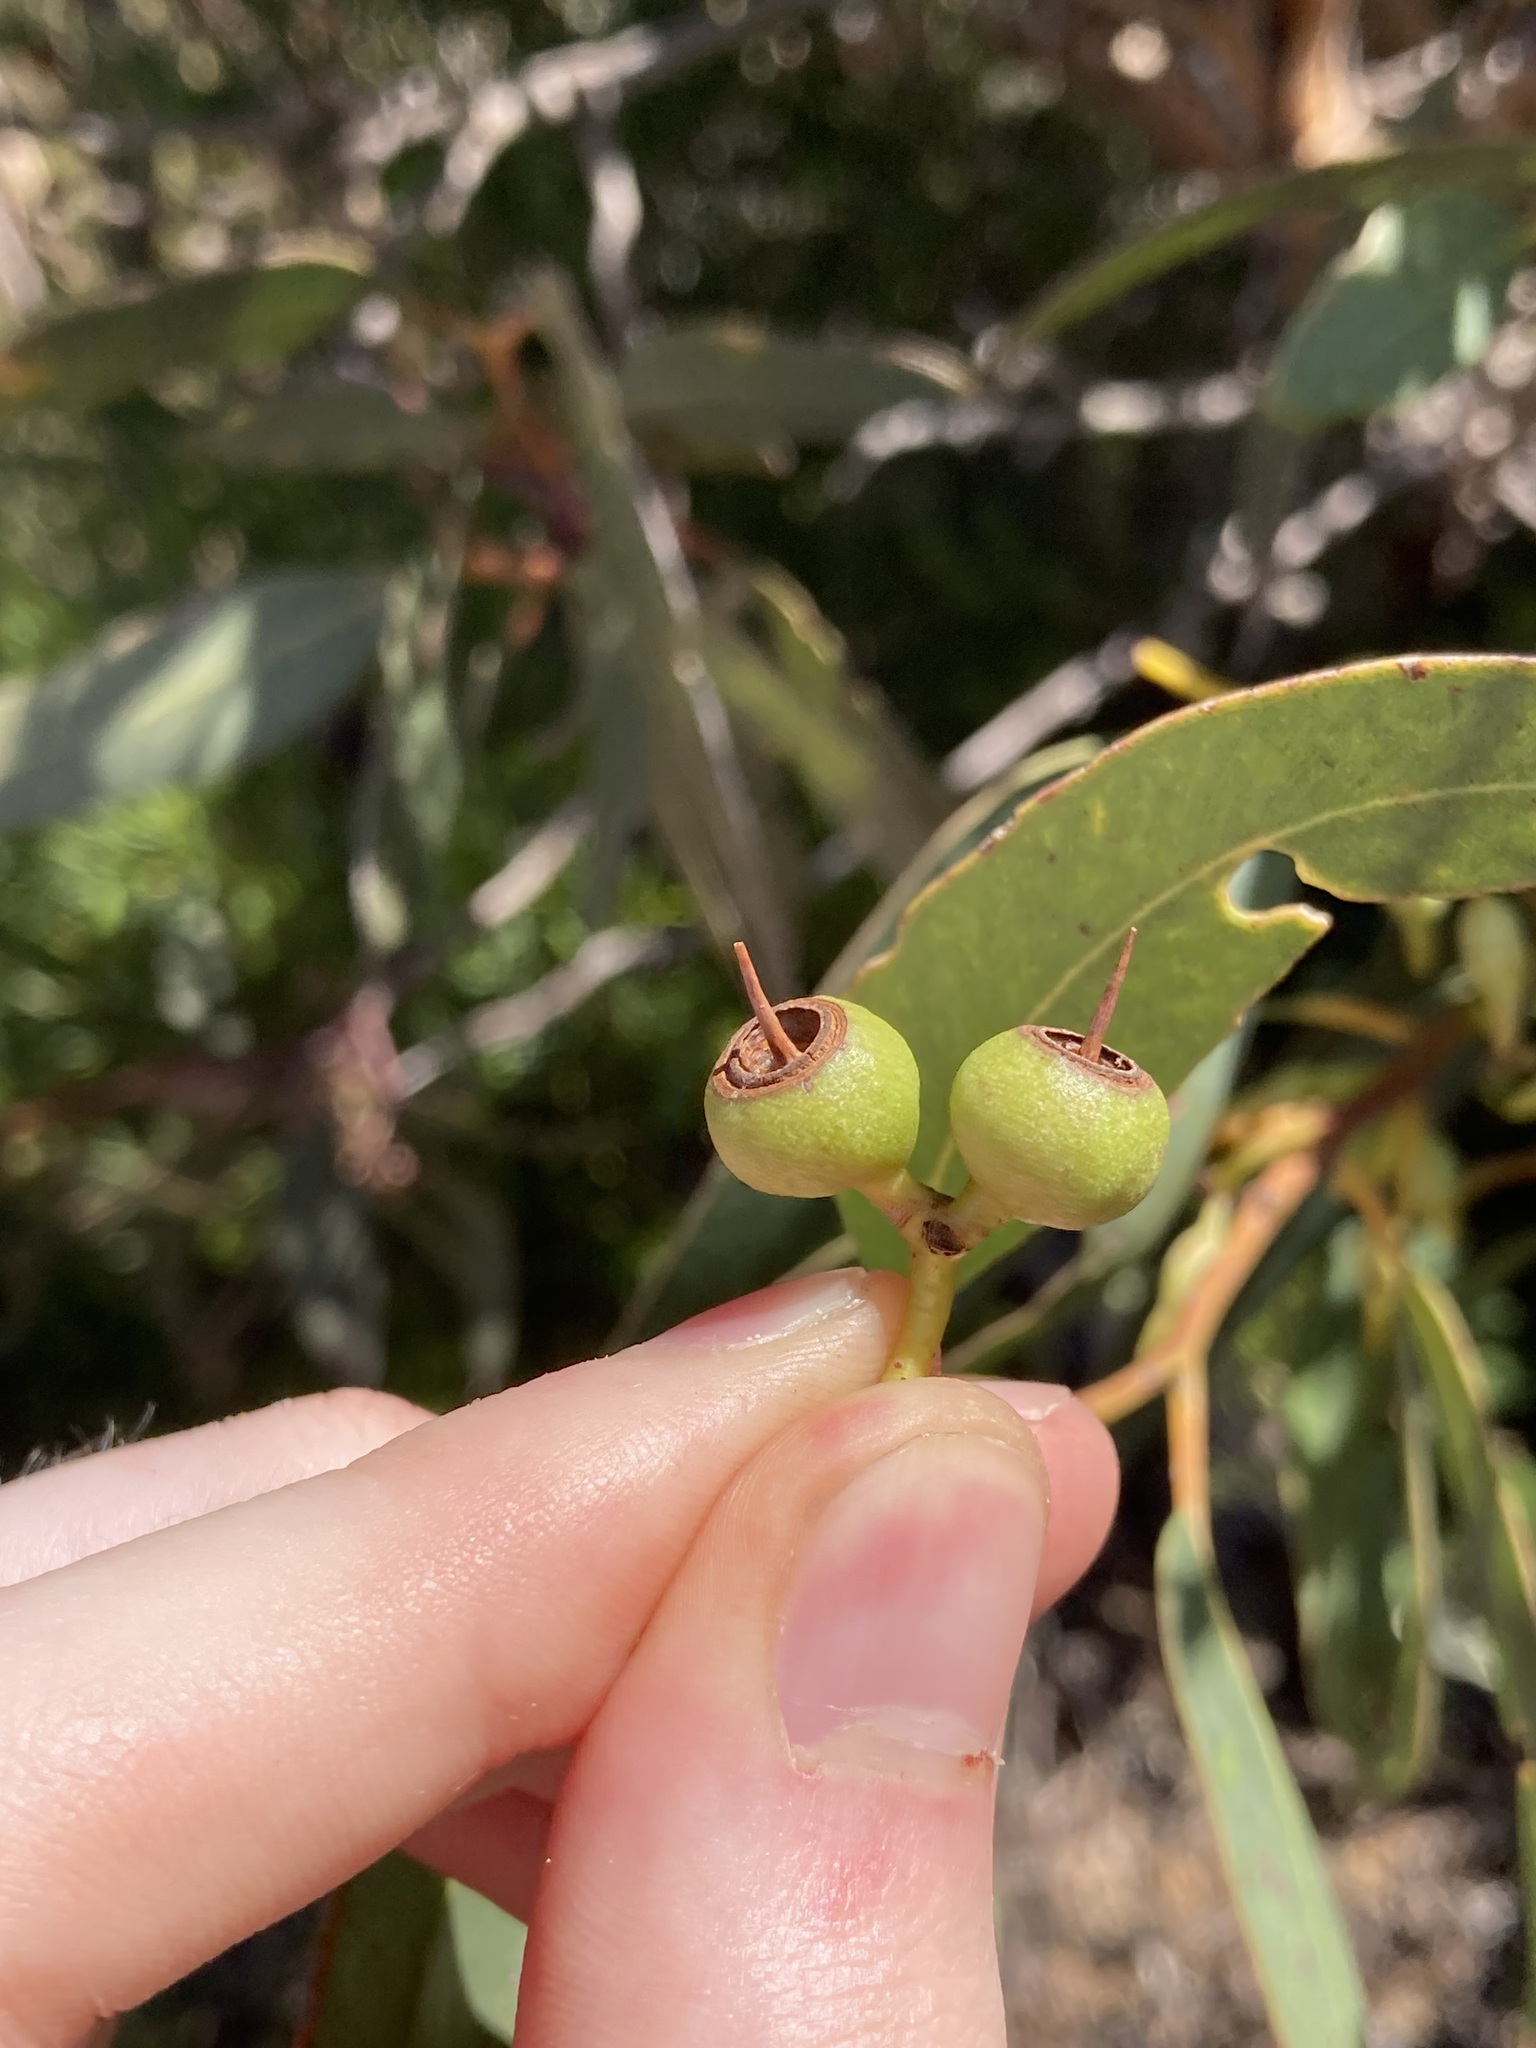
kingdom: Plantae
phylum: Tracheophyta
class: Magnoliopsida
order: Myrtales
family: Myrtaceae
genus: Eucalyptus
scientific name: Eucalyptus ecostata
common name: Coastal silver mallee
